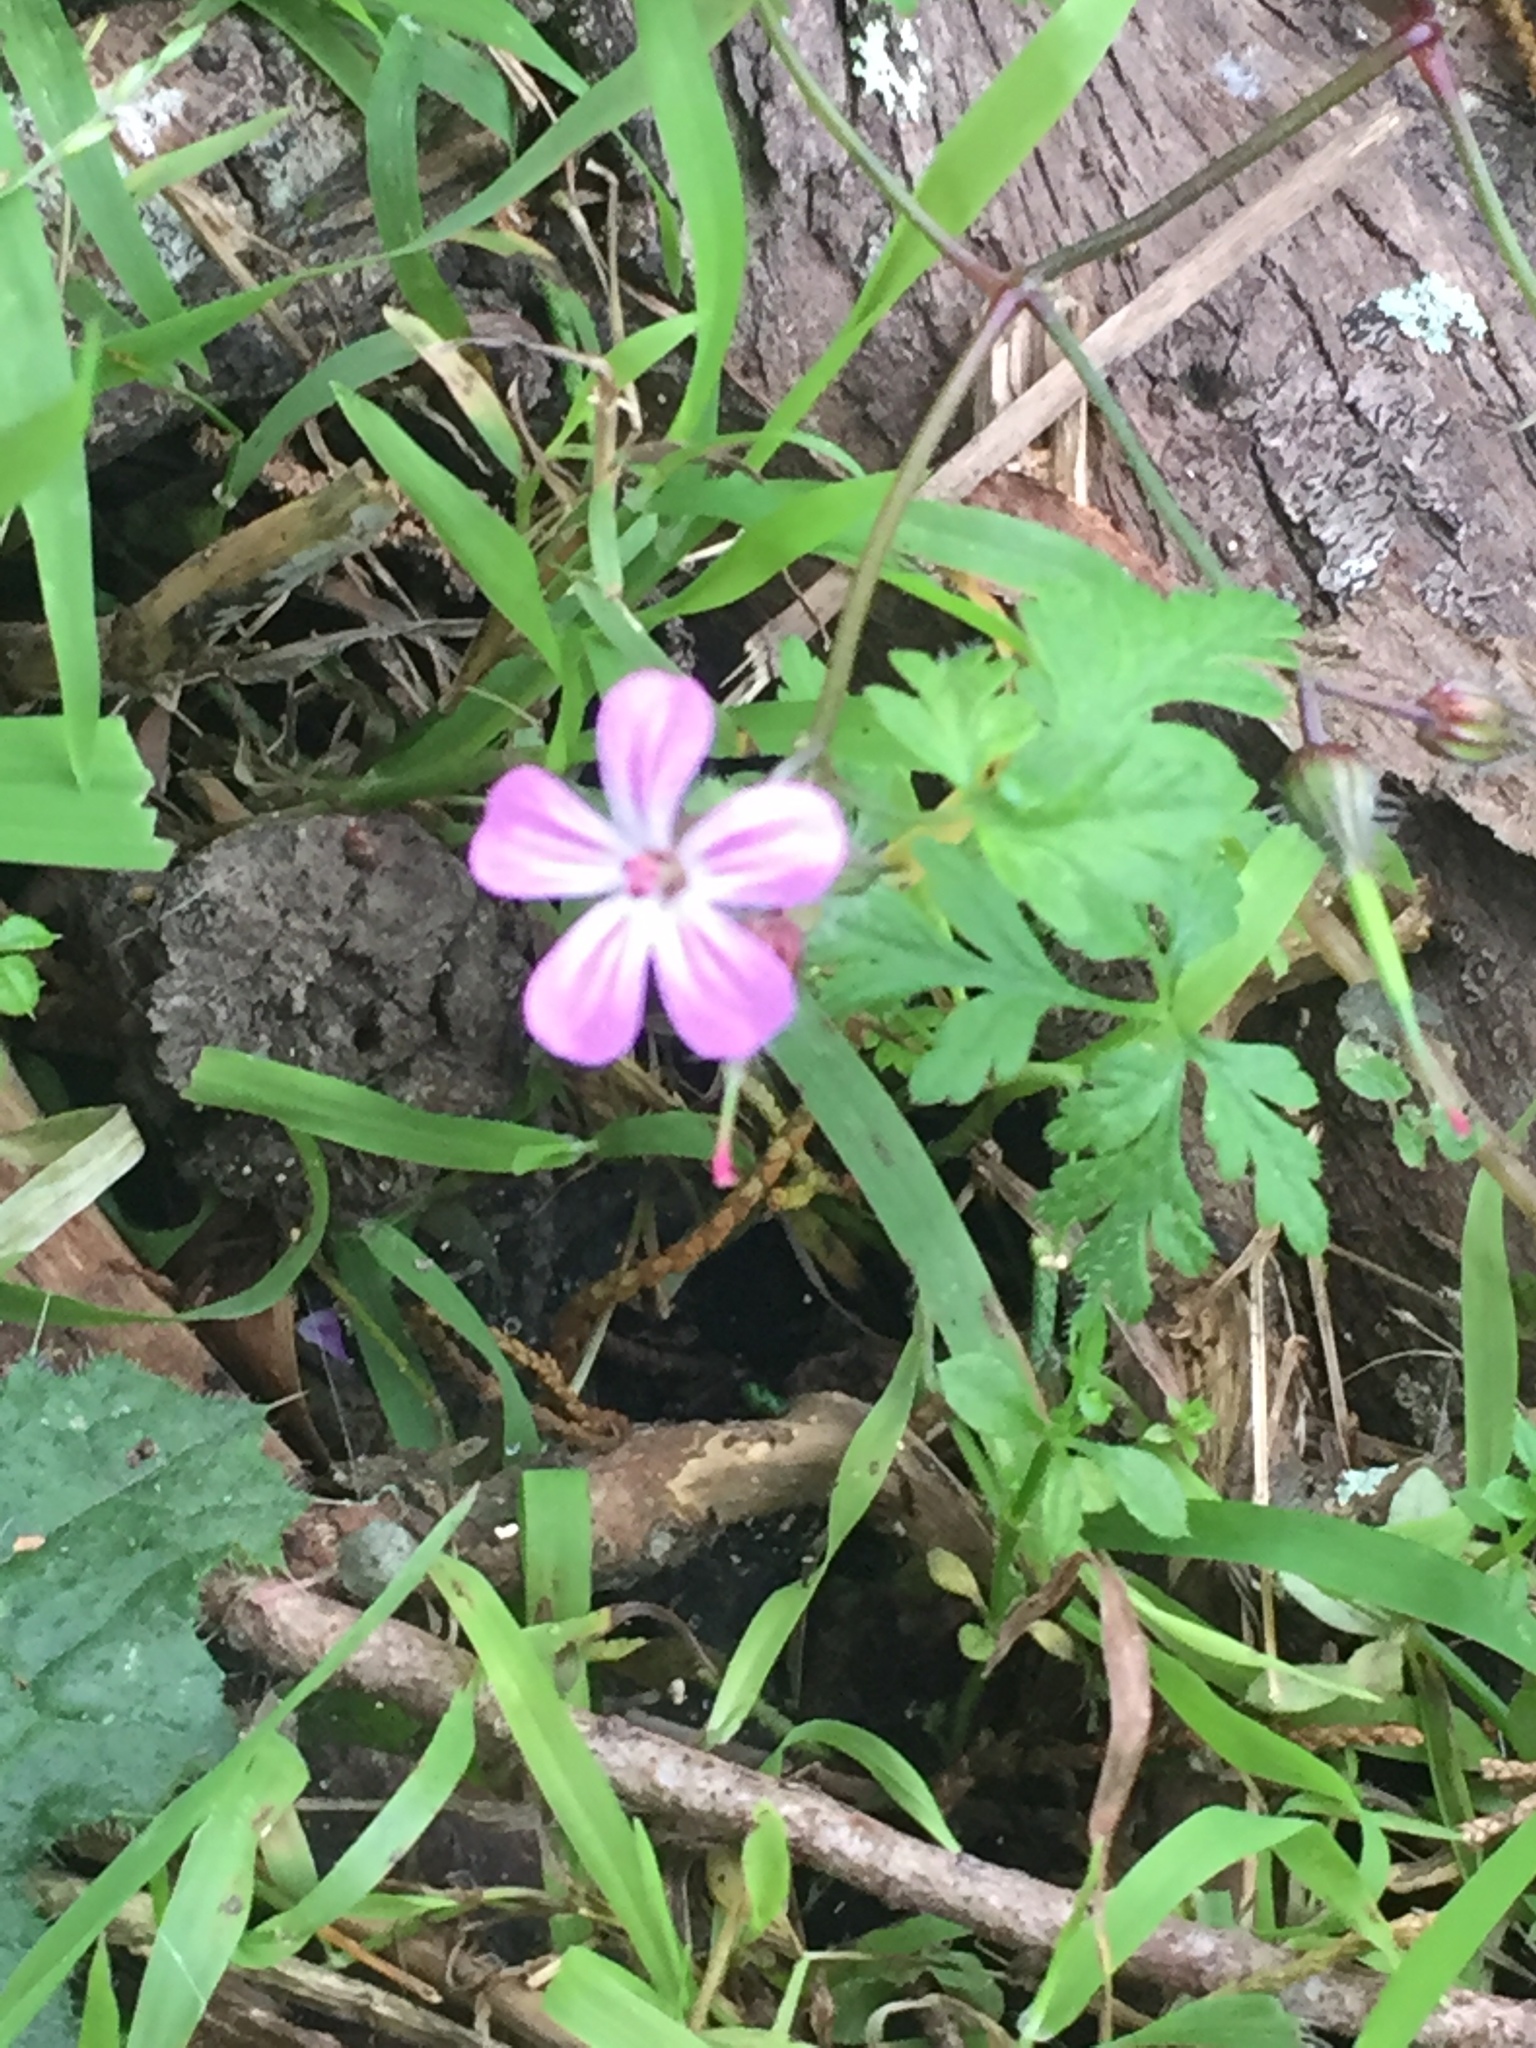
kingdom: Plantae
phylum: Tracheophyta
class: Magnoliopsida
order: Geraniales
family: Geraniaceae
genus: Geranium
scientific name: Geranium robertianum
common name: Herb-robert
